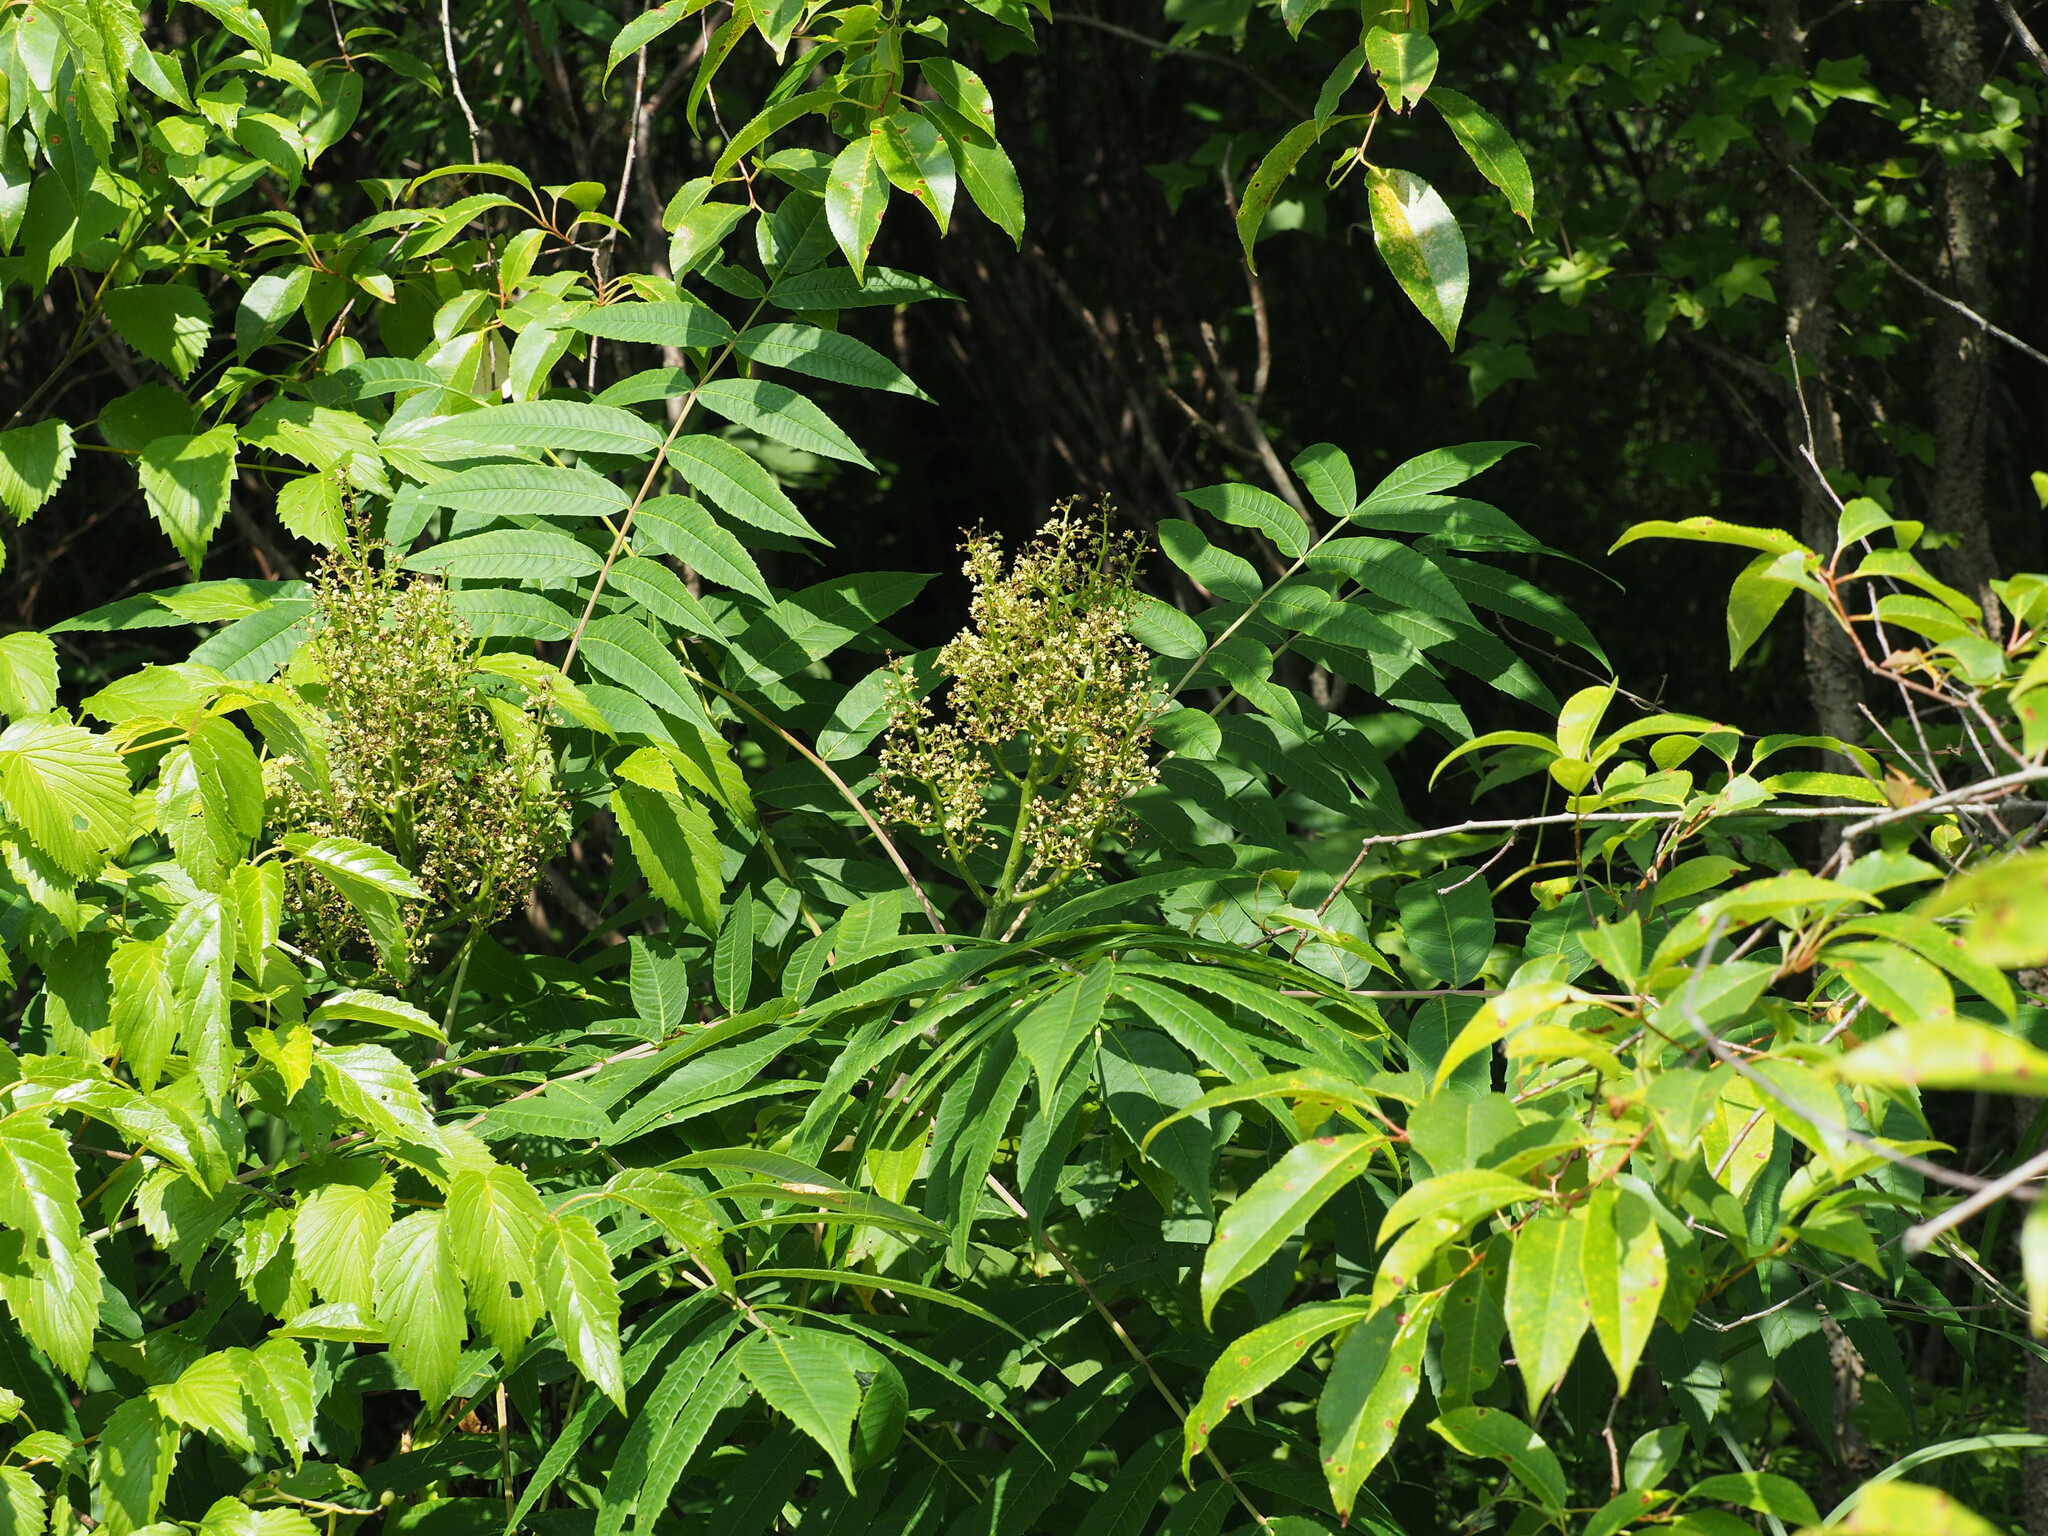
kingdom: Plantae
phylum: Tracheophyta
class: Magnoliopsida
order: Sapindales
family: Anacardiaceae
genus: Rhus
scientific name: Rhus glabra
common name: Scarlet sumac
